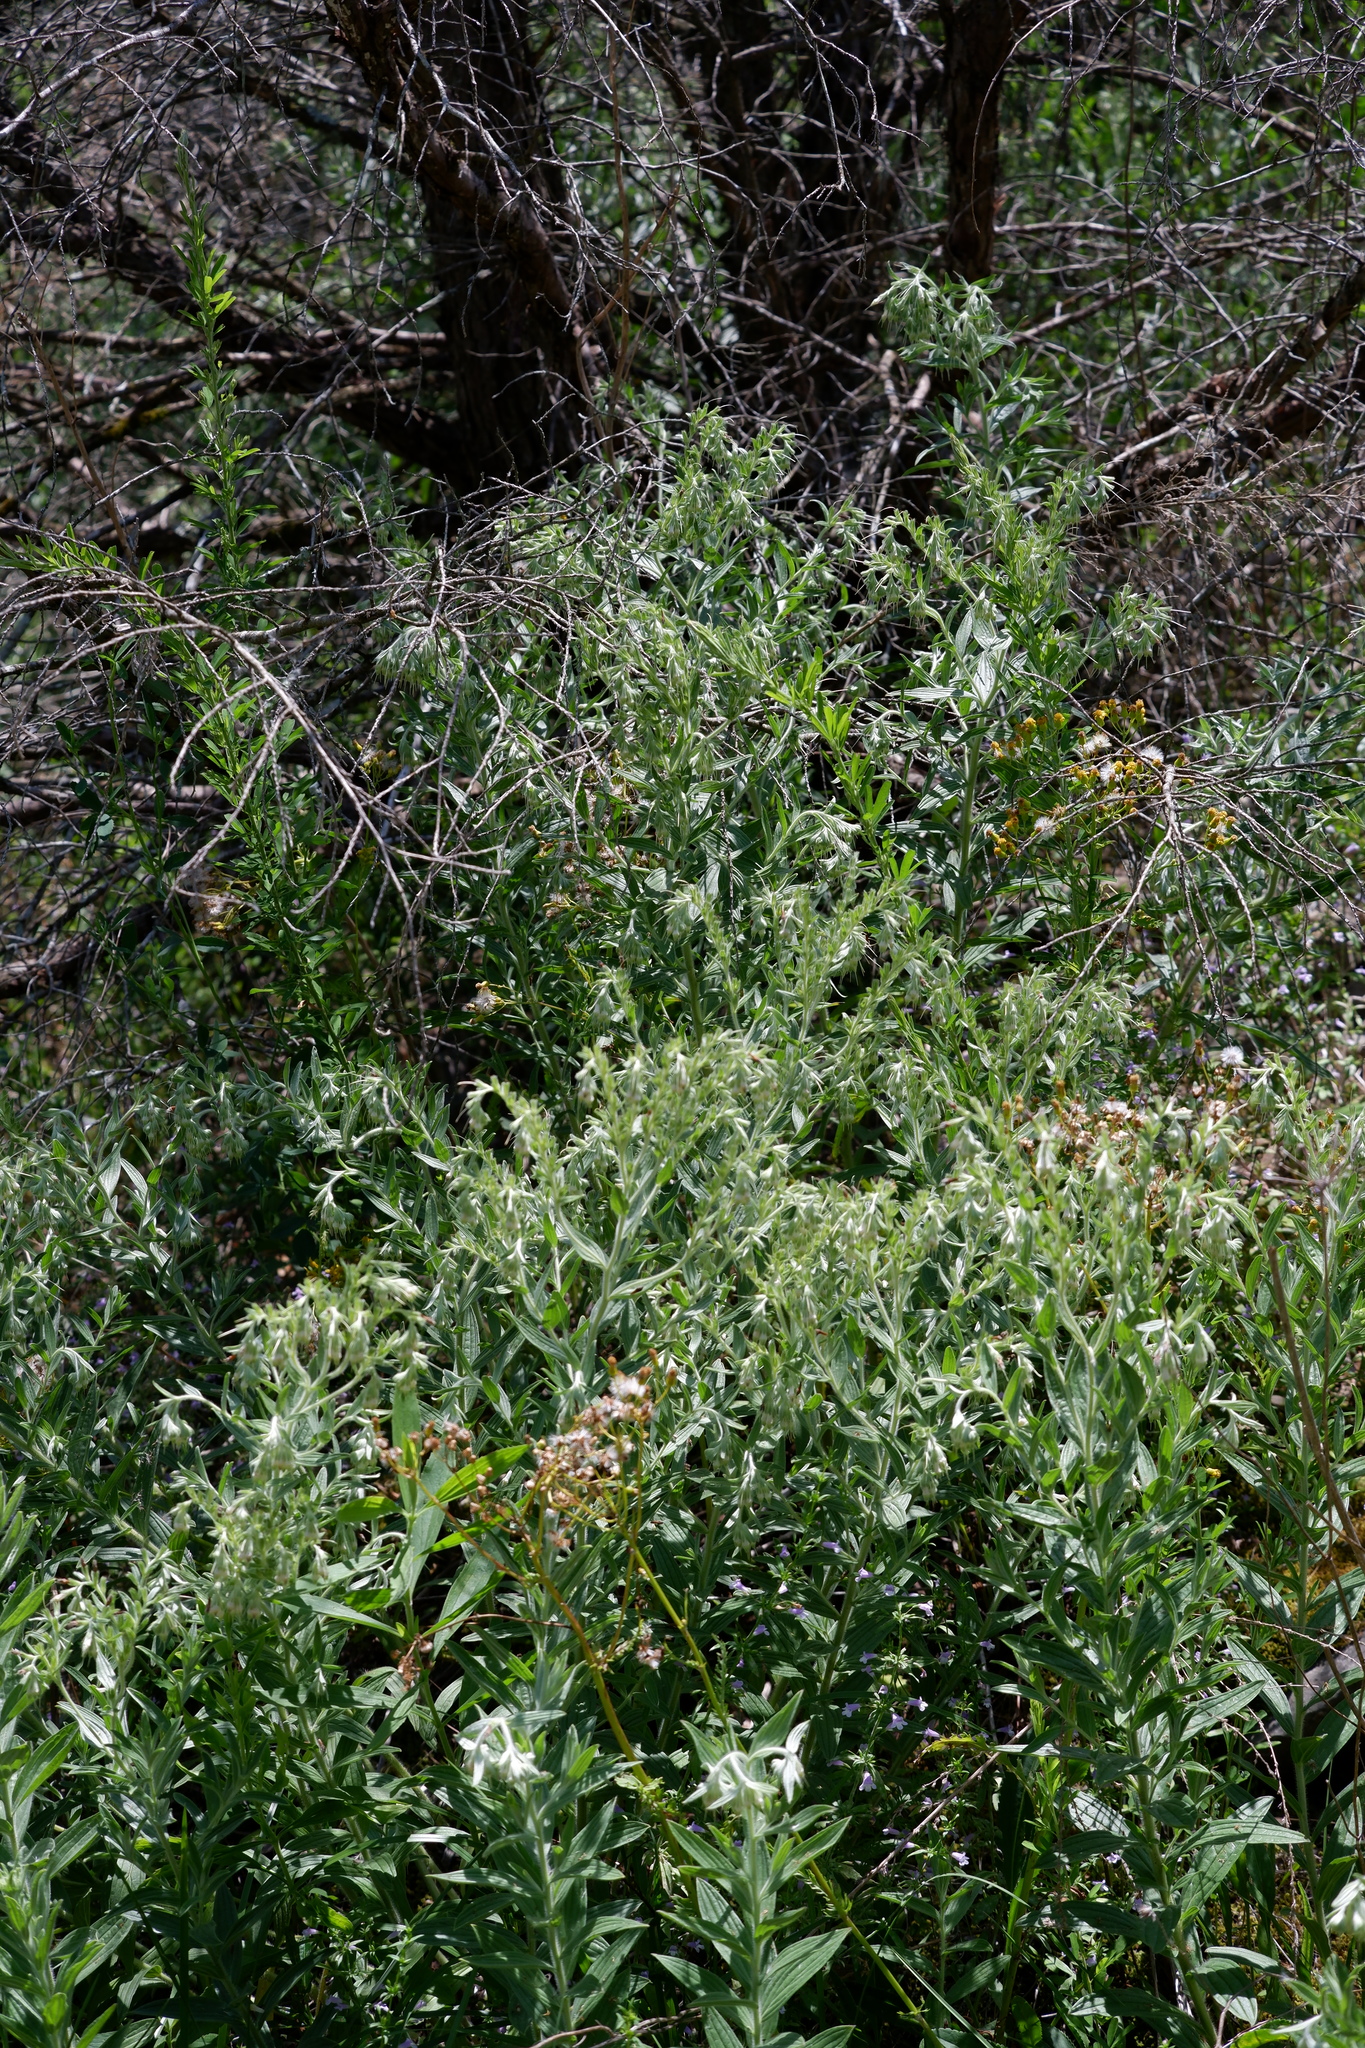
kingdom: Plantae
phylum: Tracheophyta
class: Magnoliopsida
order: Boraginales
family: Boraginaceae
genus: Lithospermum
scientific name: Lithospermum molle
